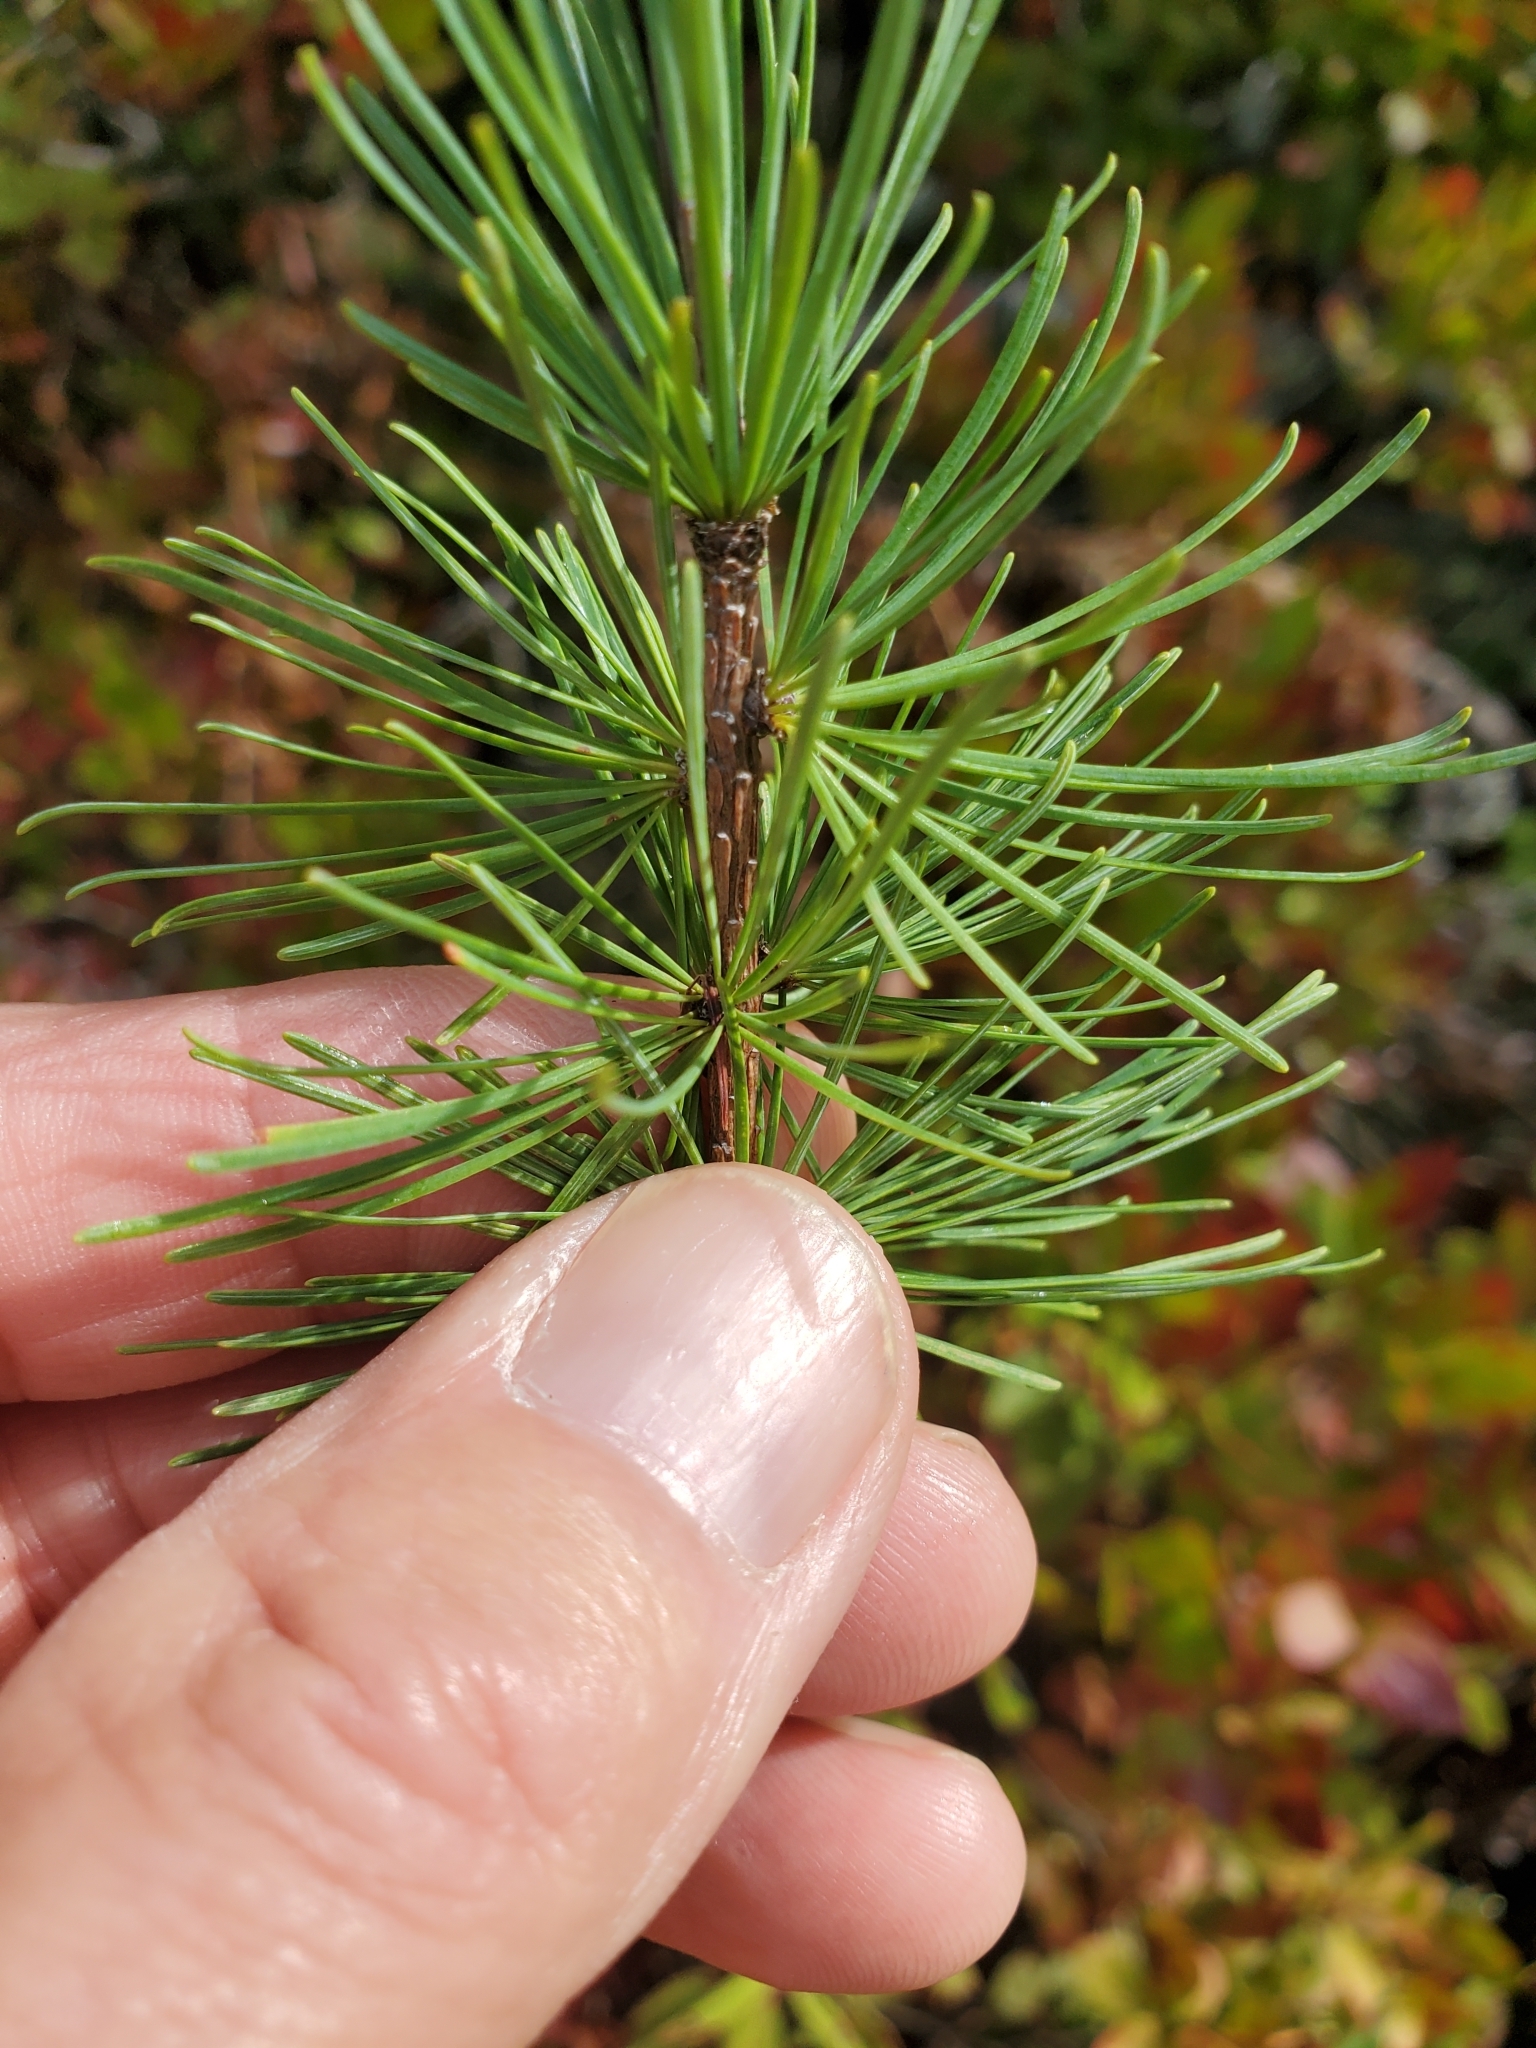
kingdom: Plantae
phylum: Tracheophyta
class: Pinopsida
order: Pinales
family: Pinaceae
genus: Larix
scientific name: Larix laricina
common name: American larch
